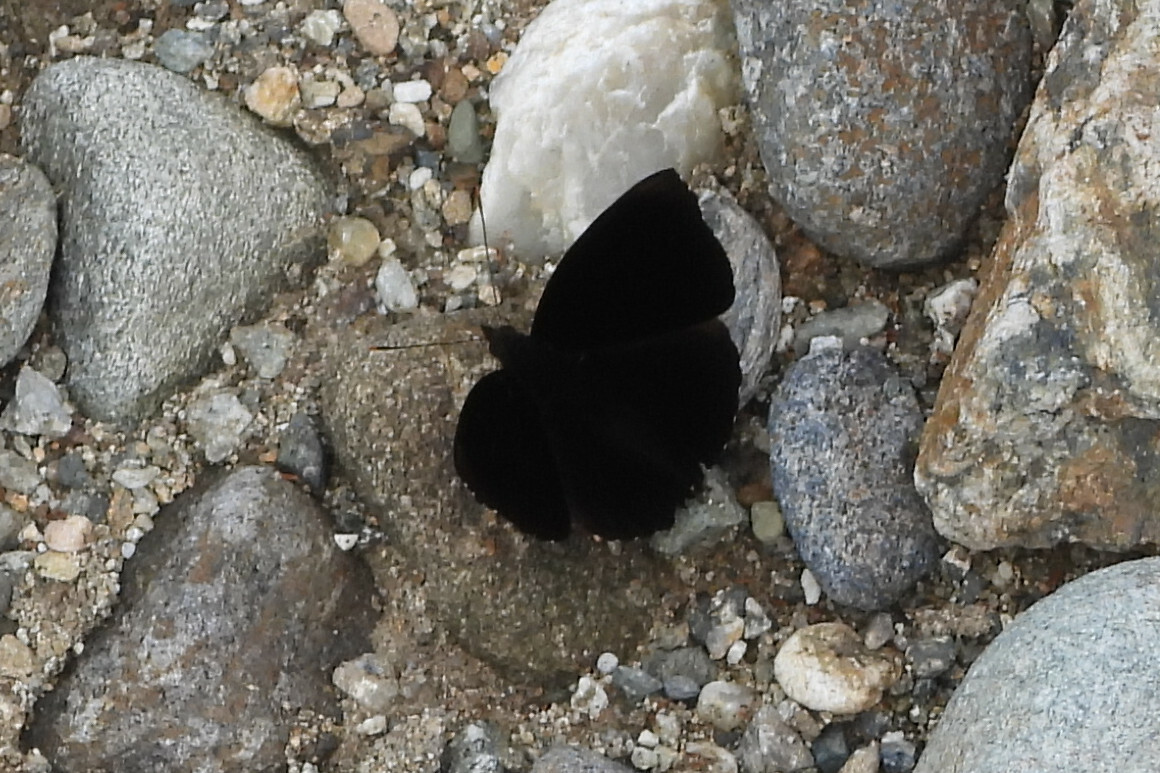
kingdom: Animalia
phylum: Arthropoda
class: Insecta
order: Lepidoptera
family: Nymphalidae
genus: Apatura
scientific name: Apatura Rohana spec
